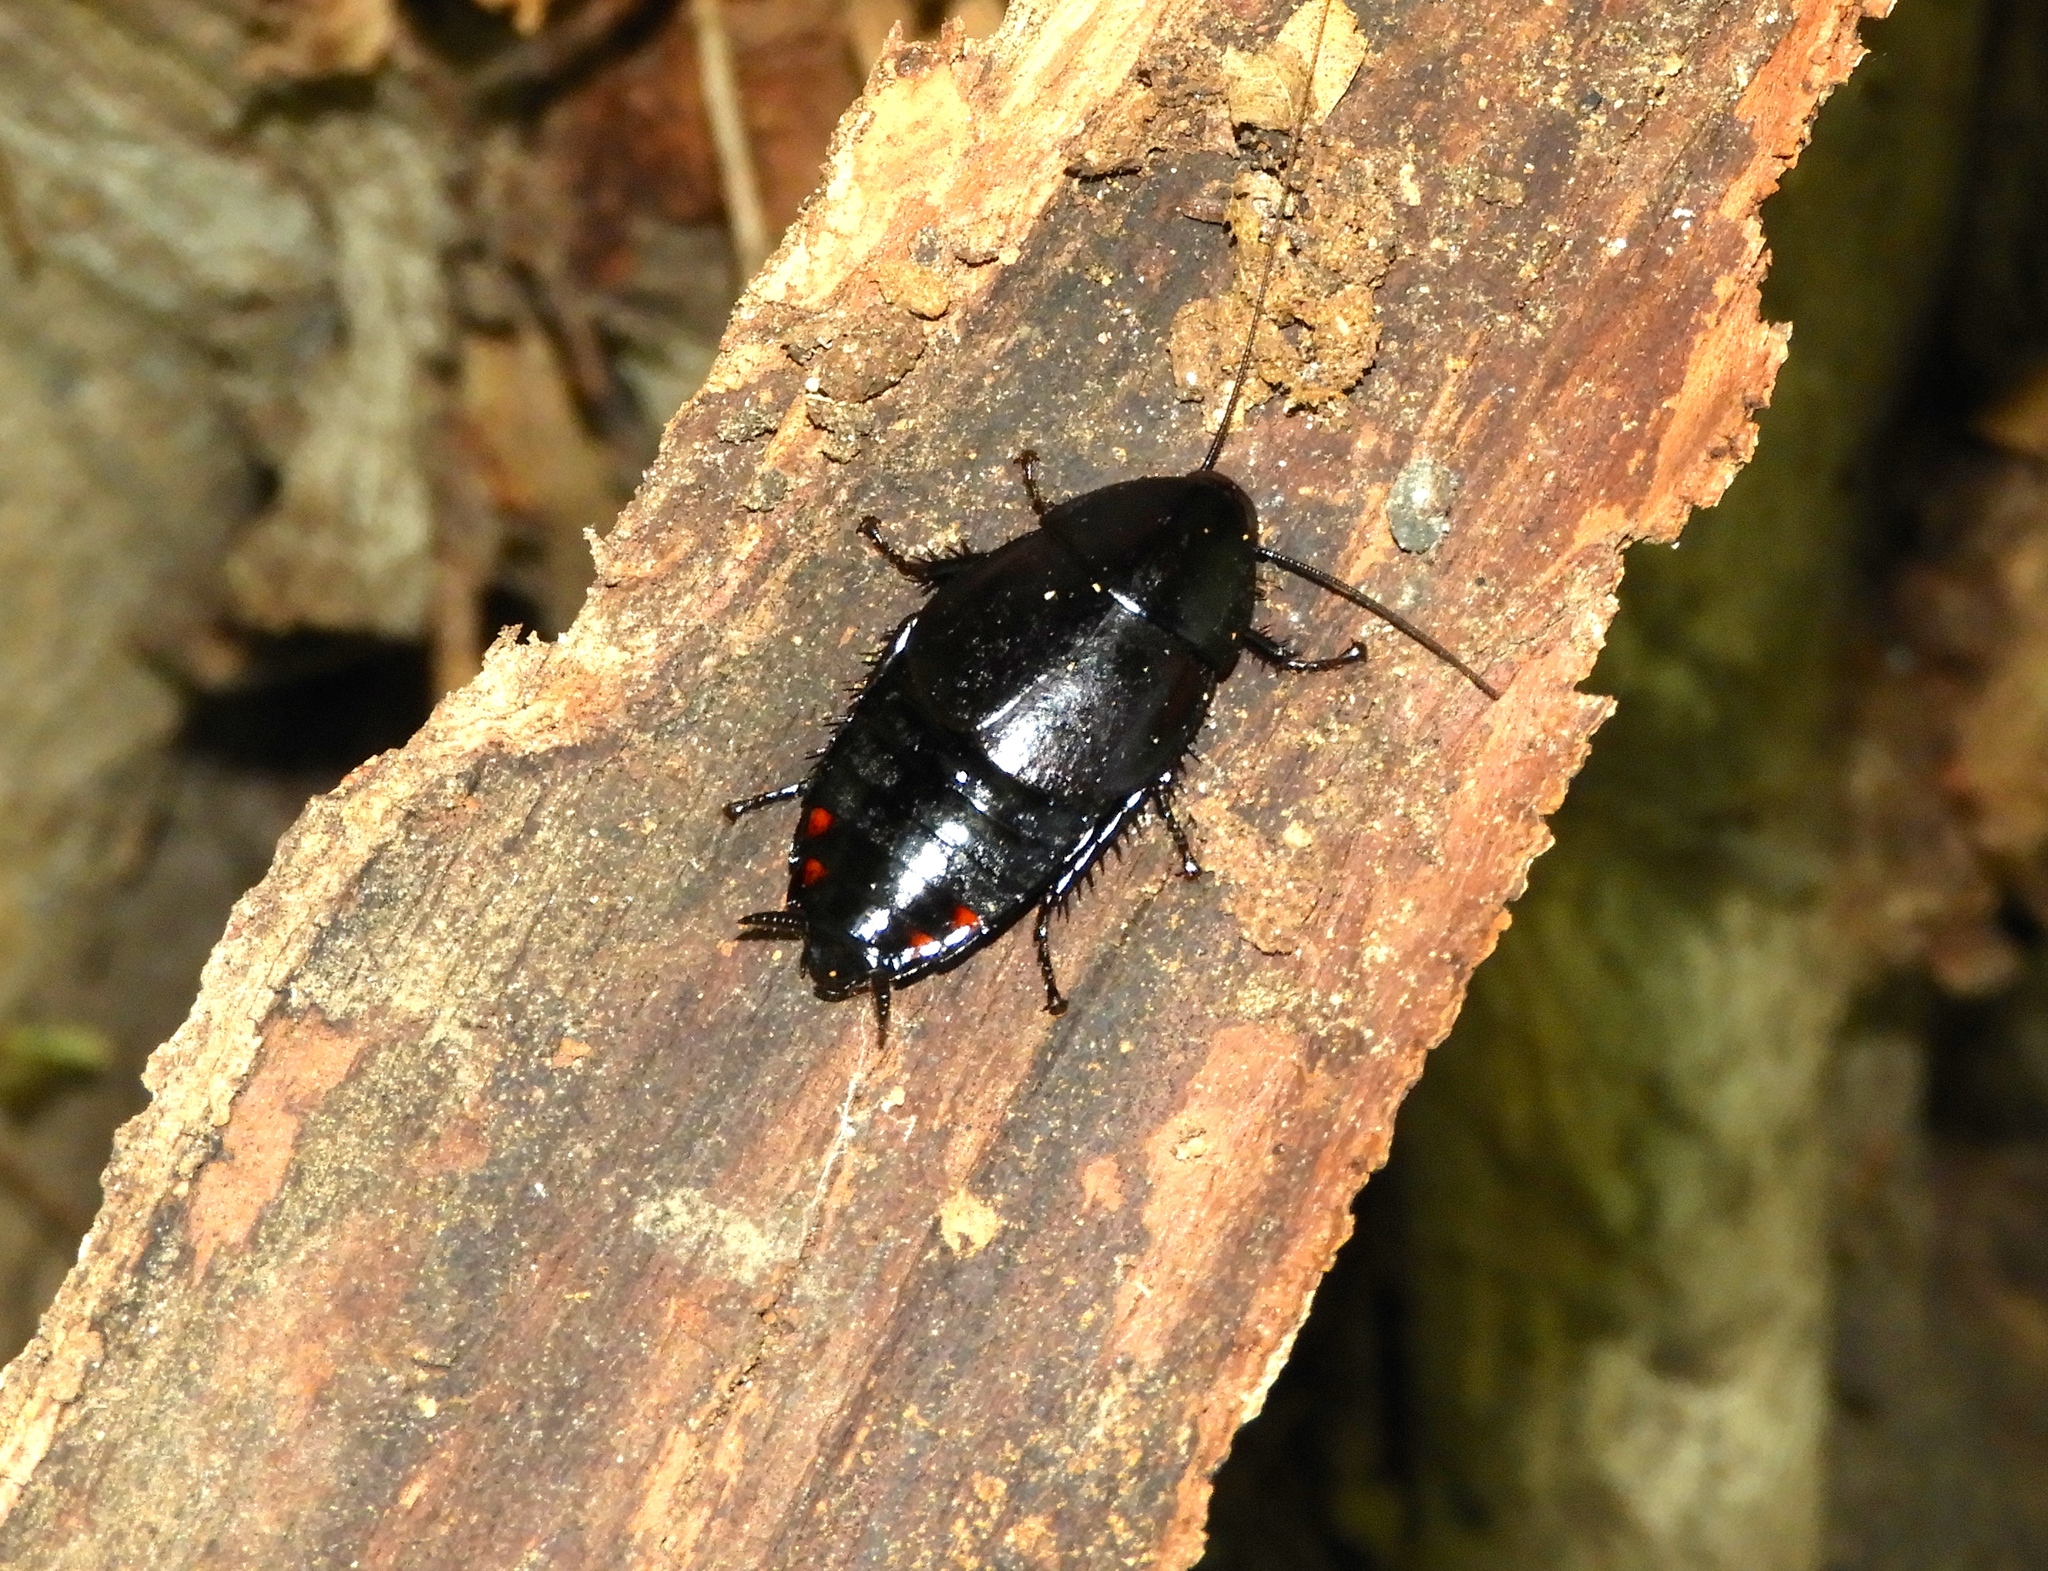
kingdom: Animalia
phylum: Arthropoda
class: Insecta
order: Blattodea
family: Ectobiidae
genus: Nyctibora
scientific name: Nyctibora tetrasticta
